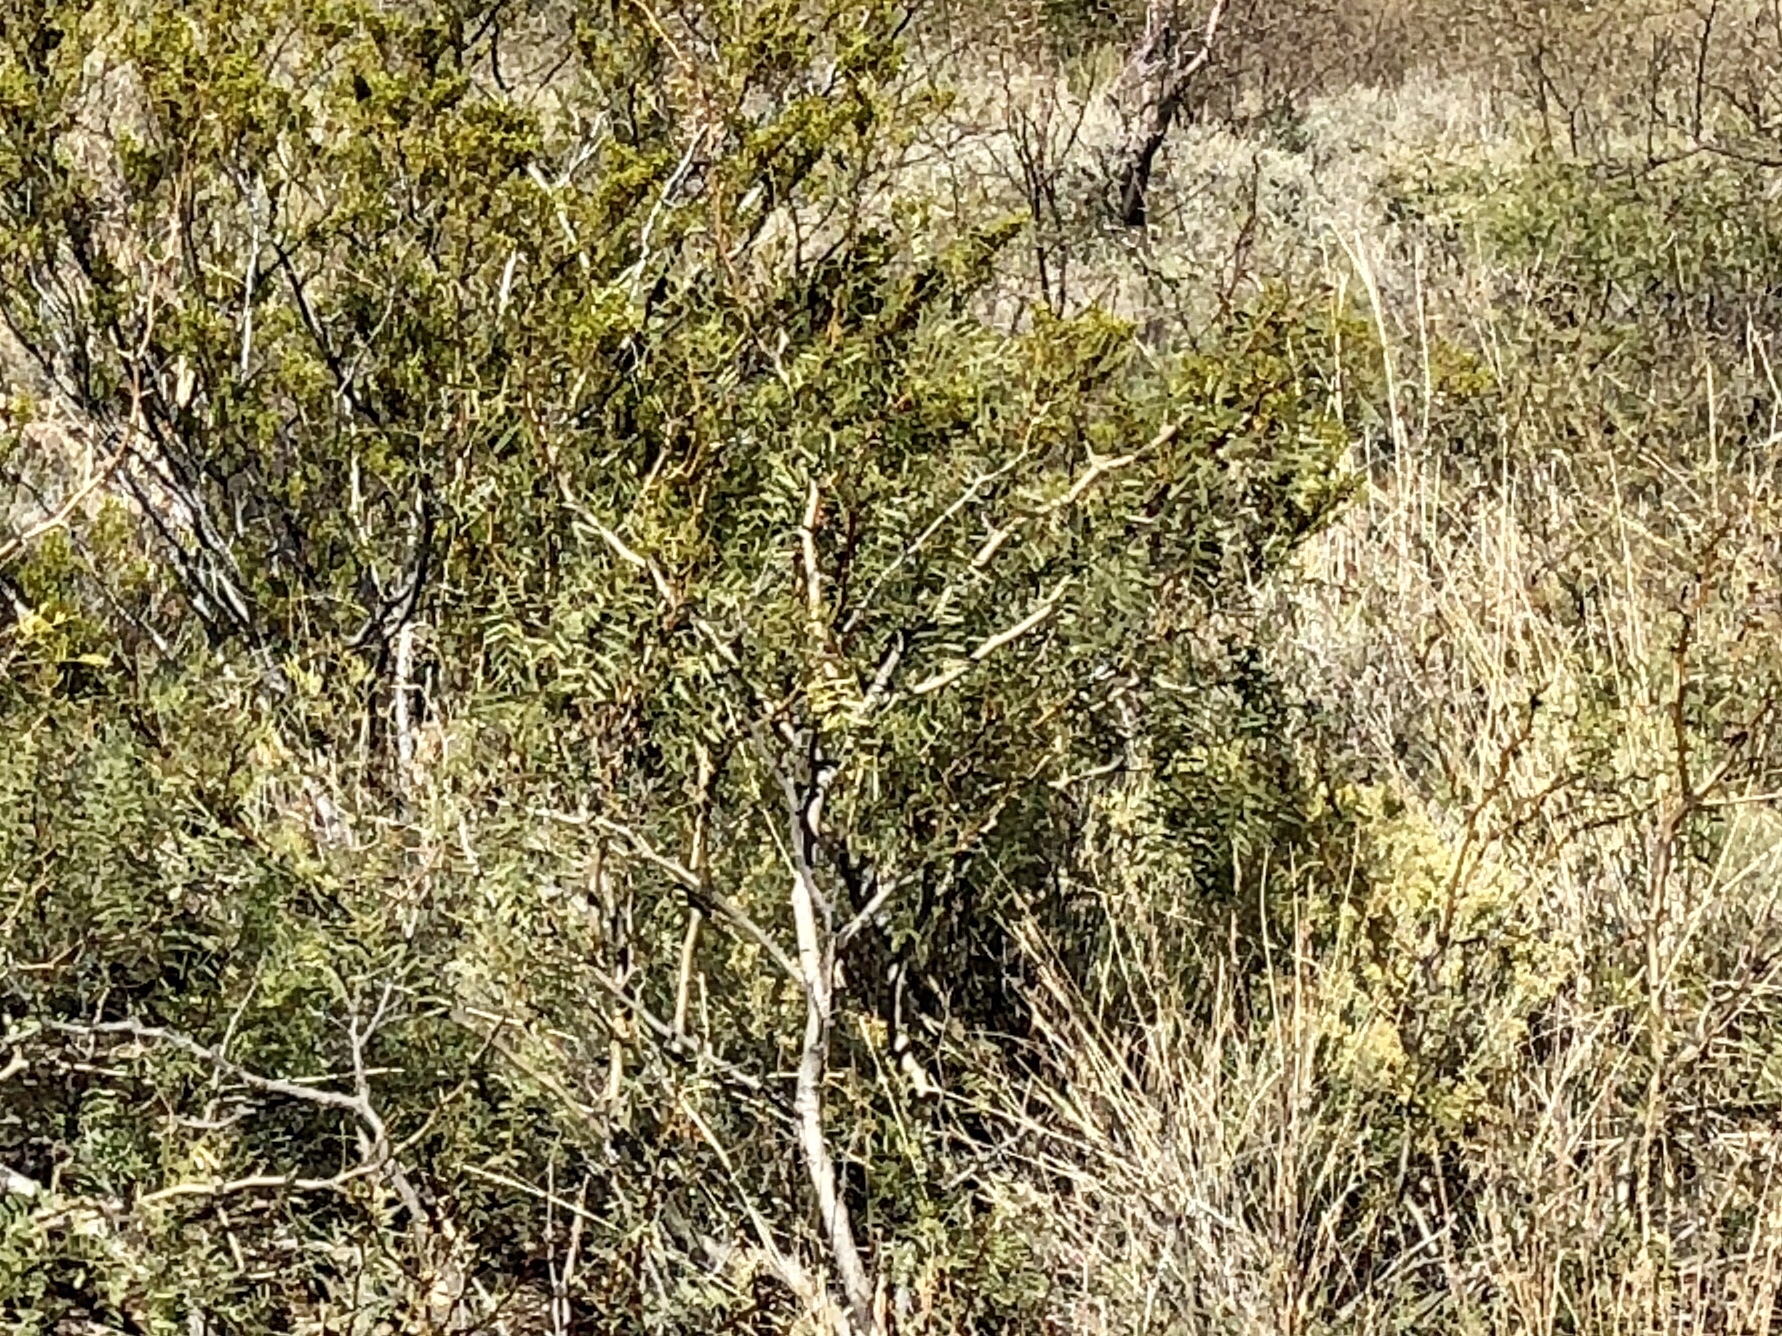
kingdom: Plantae
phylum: Tracheophyta
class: Magnoliopsida
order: Fabales
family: Fabaceae
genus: Prosopis
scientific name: Prosopis glandulosa
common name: Honey mesquite
